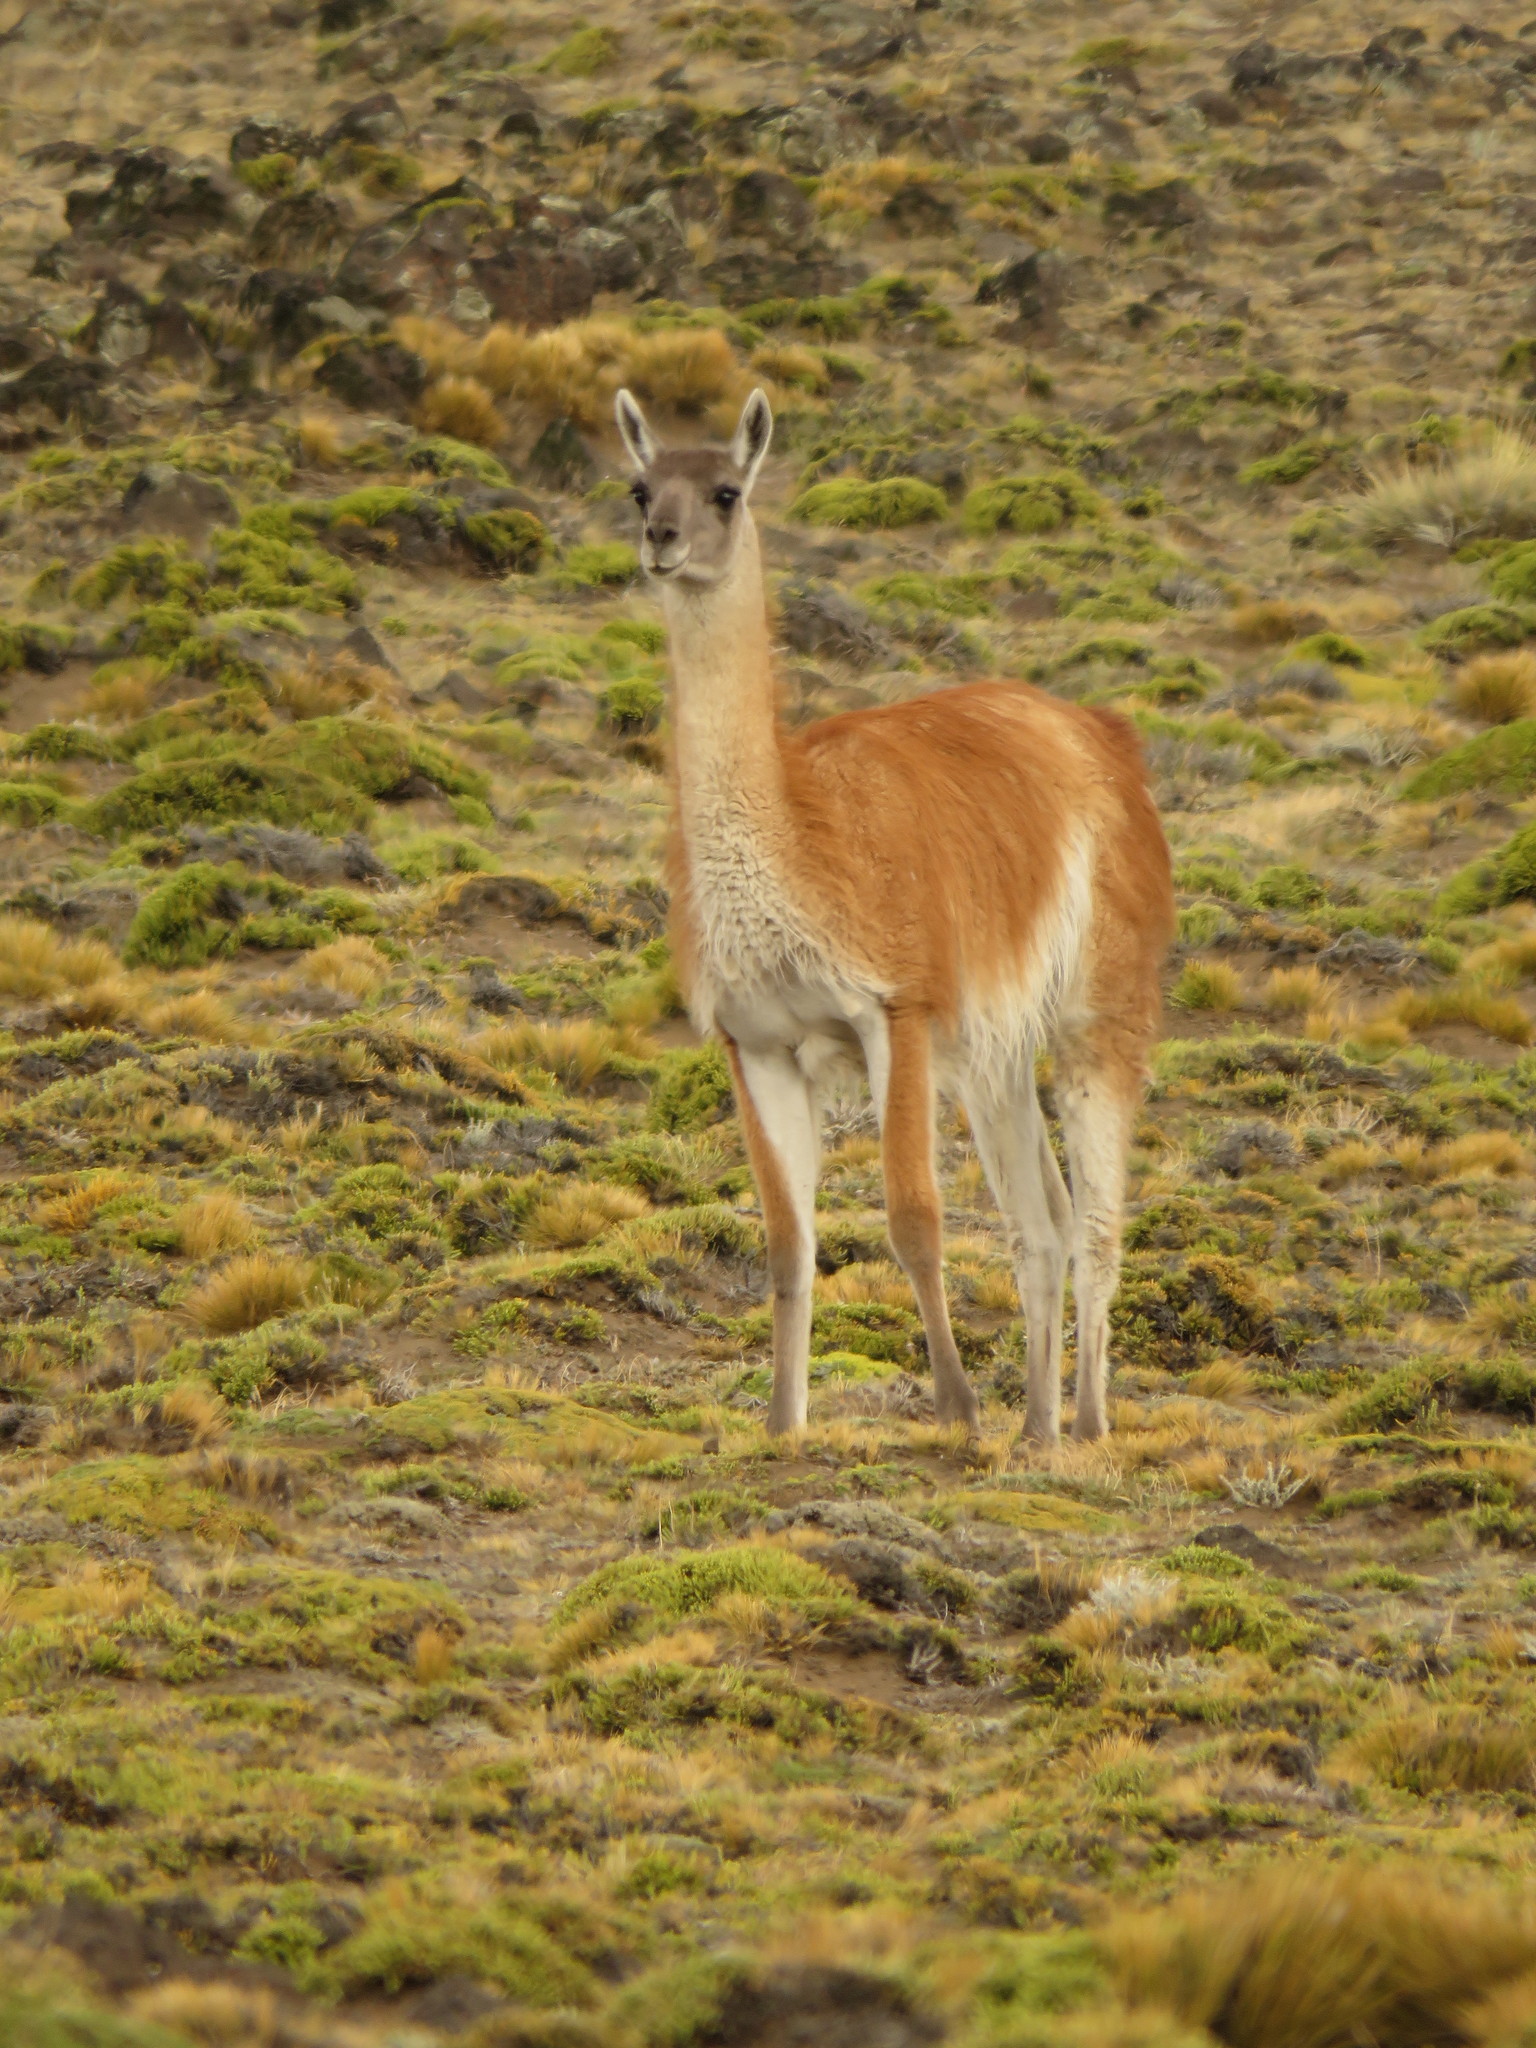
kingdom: Animalia
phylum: Chordata
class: Mammalia
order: Artiodactyla
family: Camelidae
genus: Lama
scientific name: Lama glama
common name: Llama
